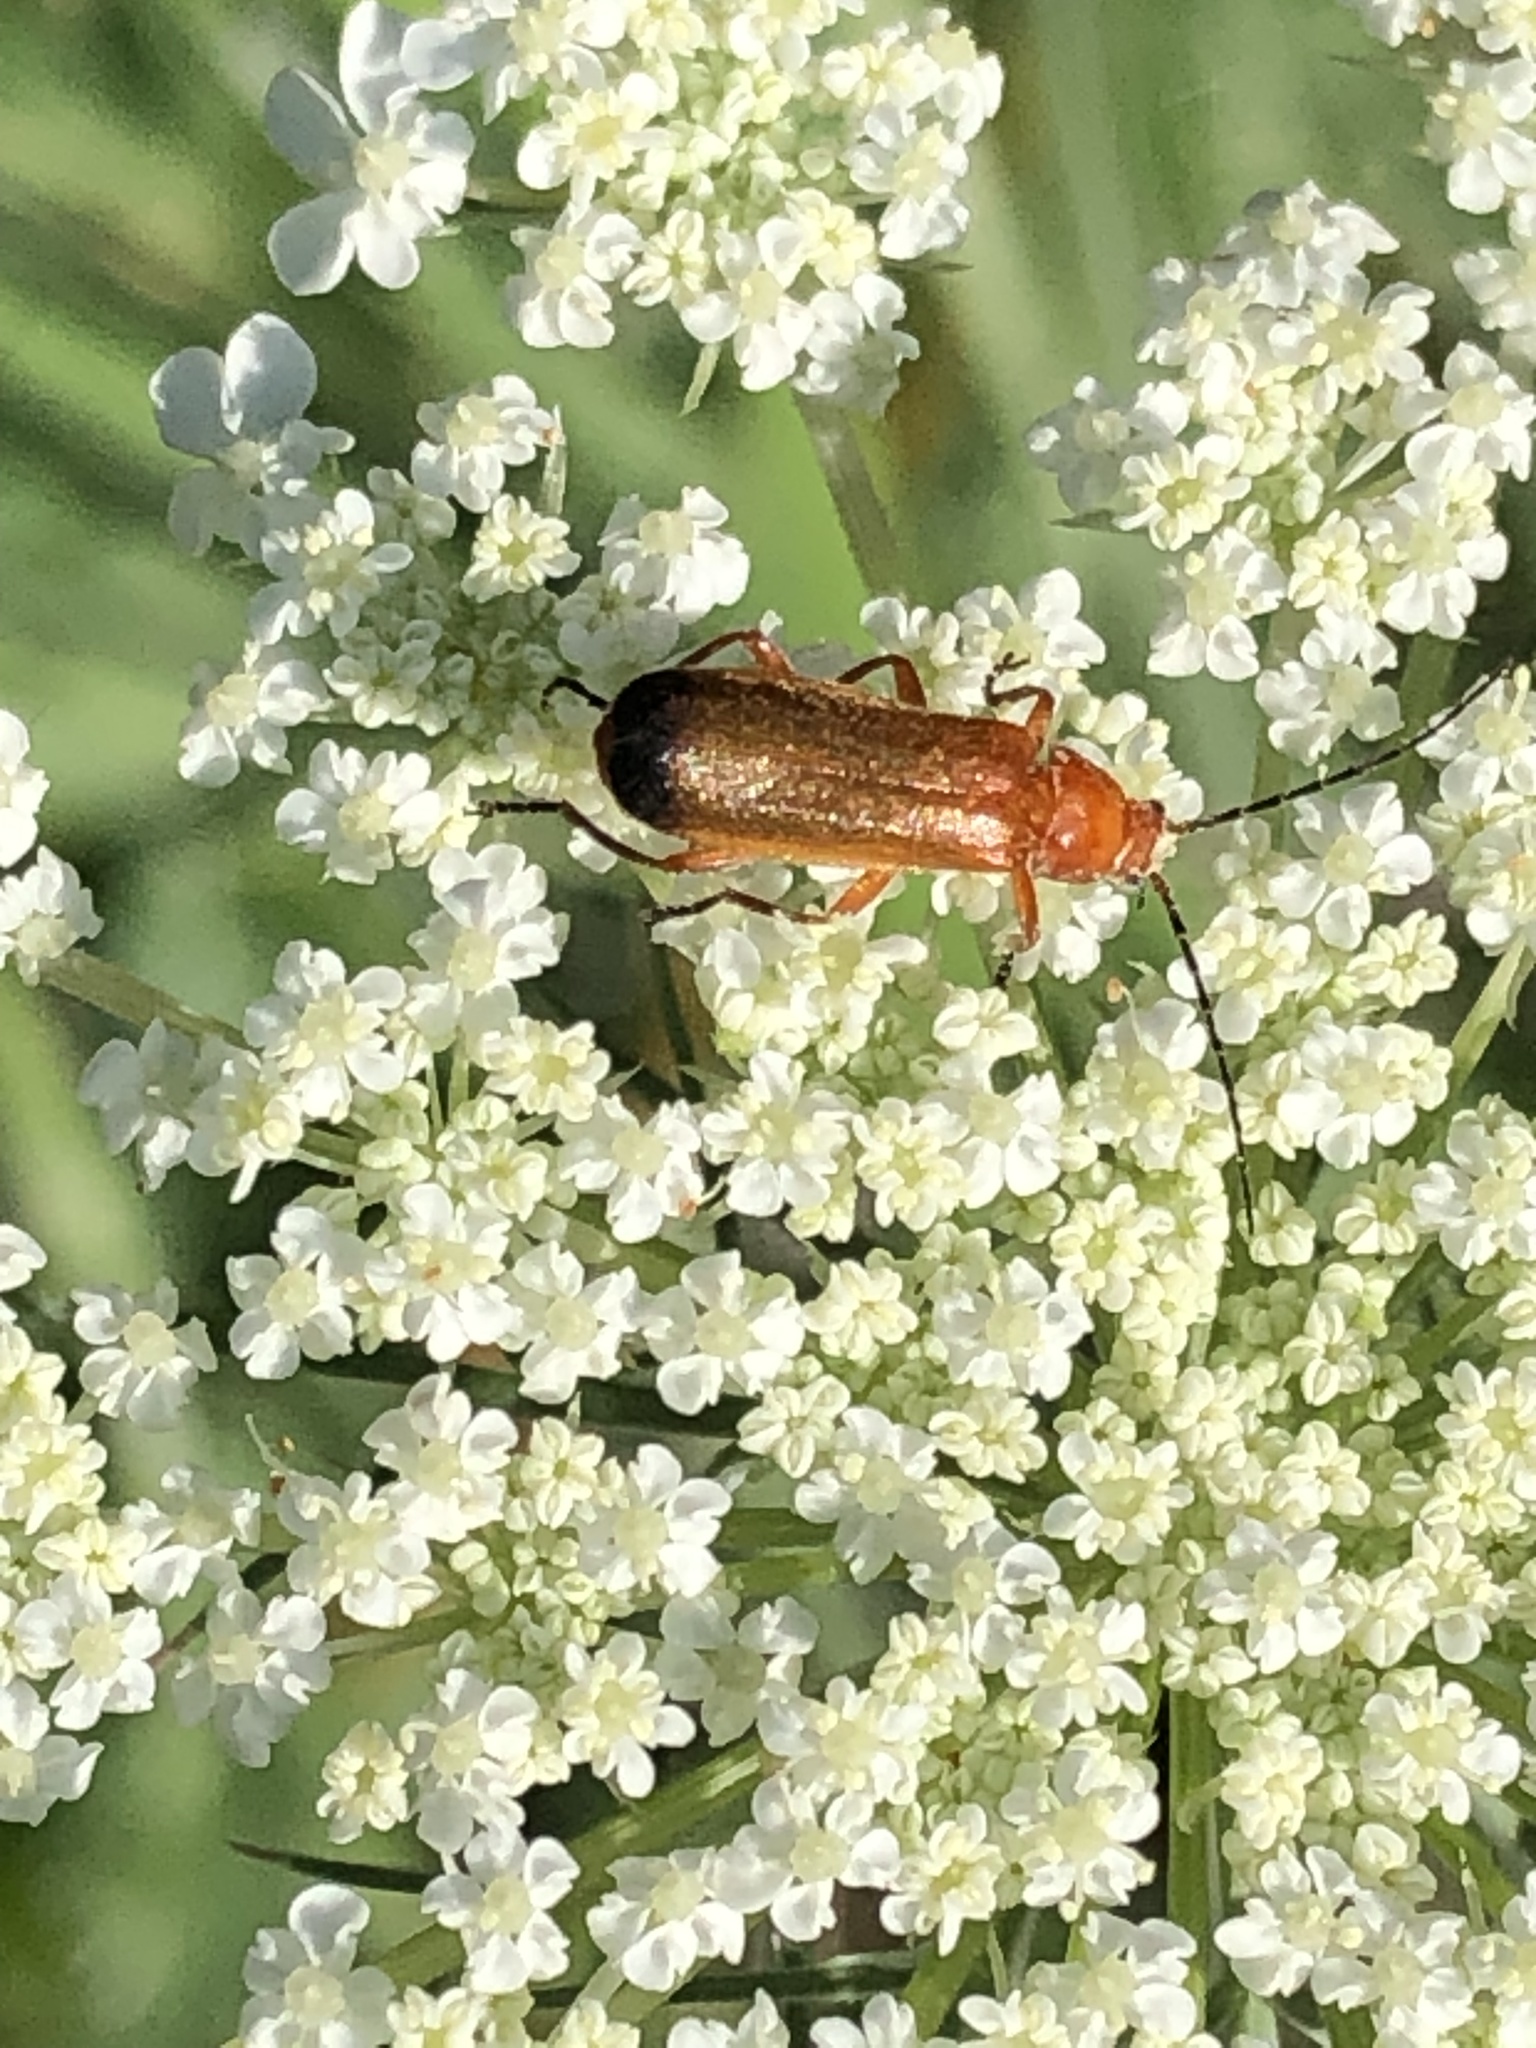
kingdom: Animalia
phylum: Arthropoda
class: Insecta
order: Coleoptera
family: Cantharidae
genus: Rhagonycha
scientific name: Rhagonycha fulva
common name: Common red soldier beetle
